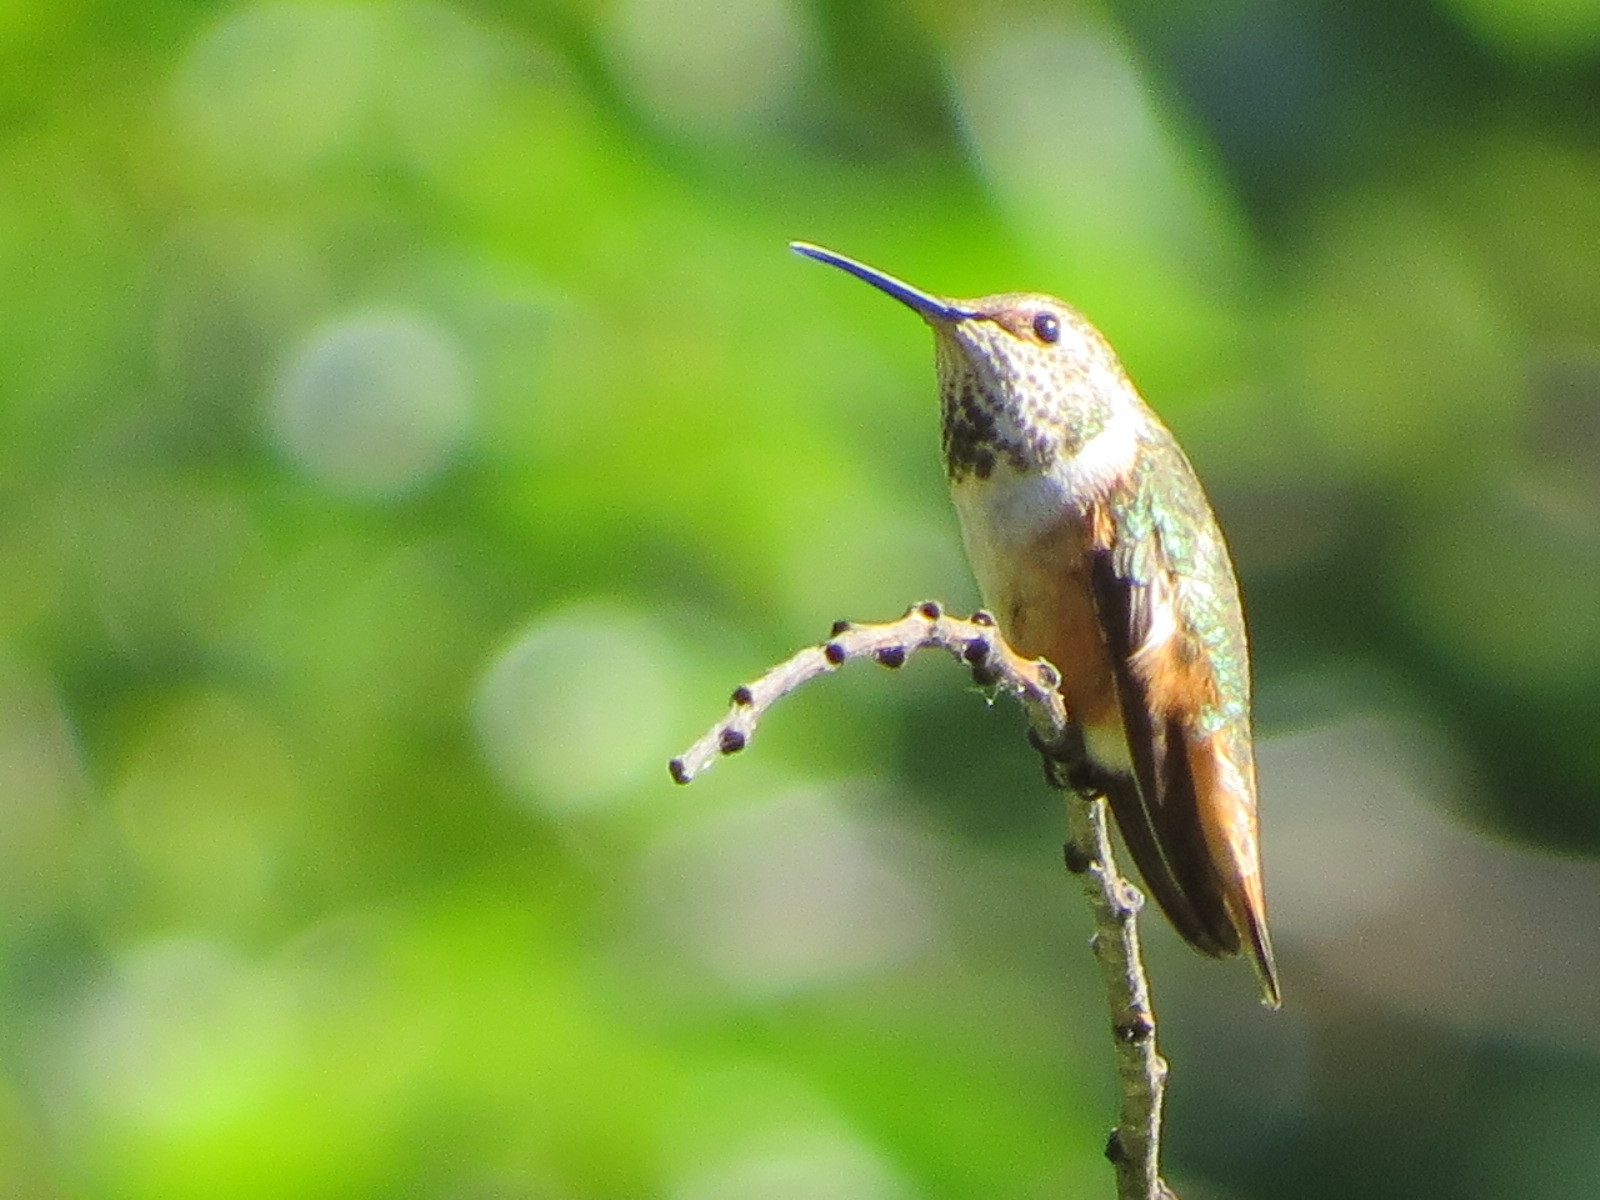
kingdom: Animalia
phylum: Chordata
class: Aves
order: Apodiformes
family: Trochilidae
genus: Selasphorus
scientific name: Selasphorus sasin
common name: Allen's hummingbird
